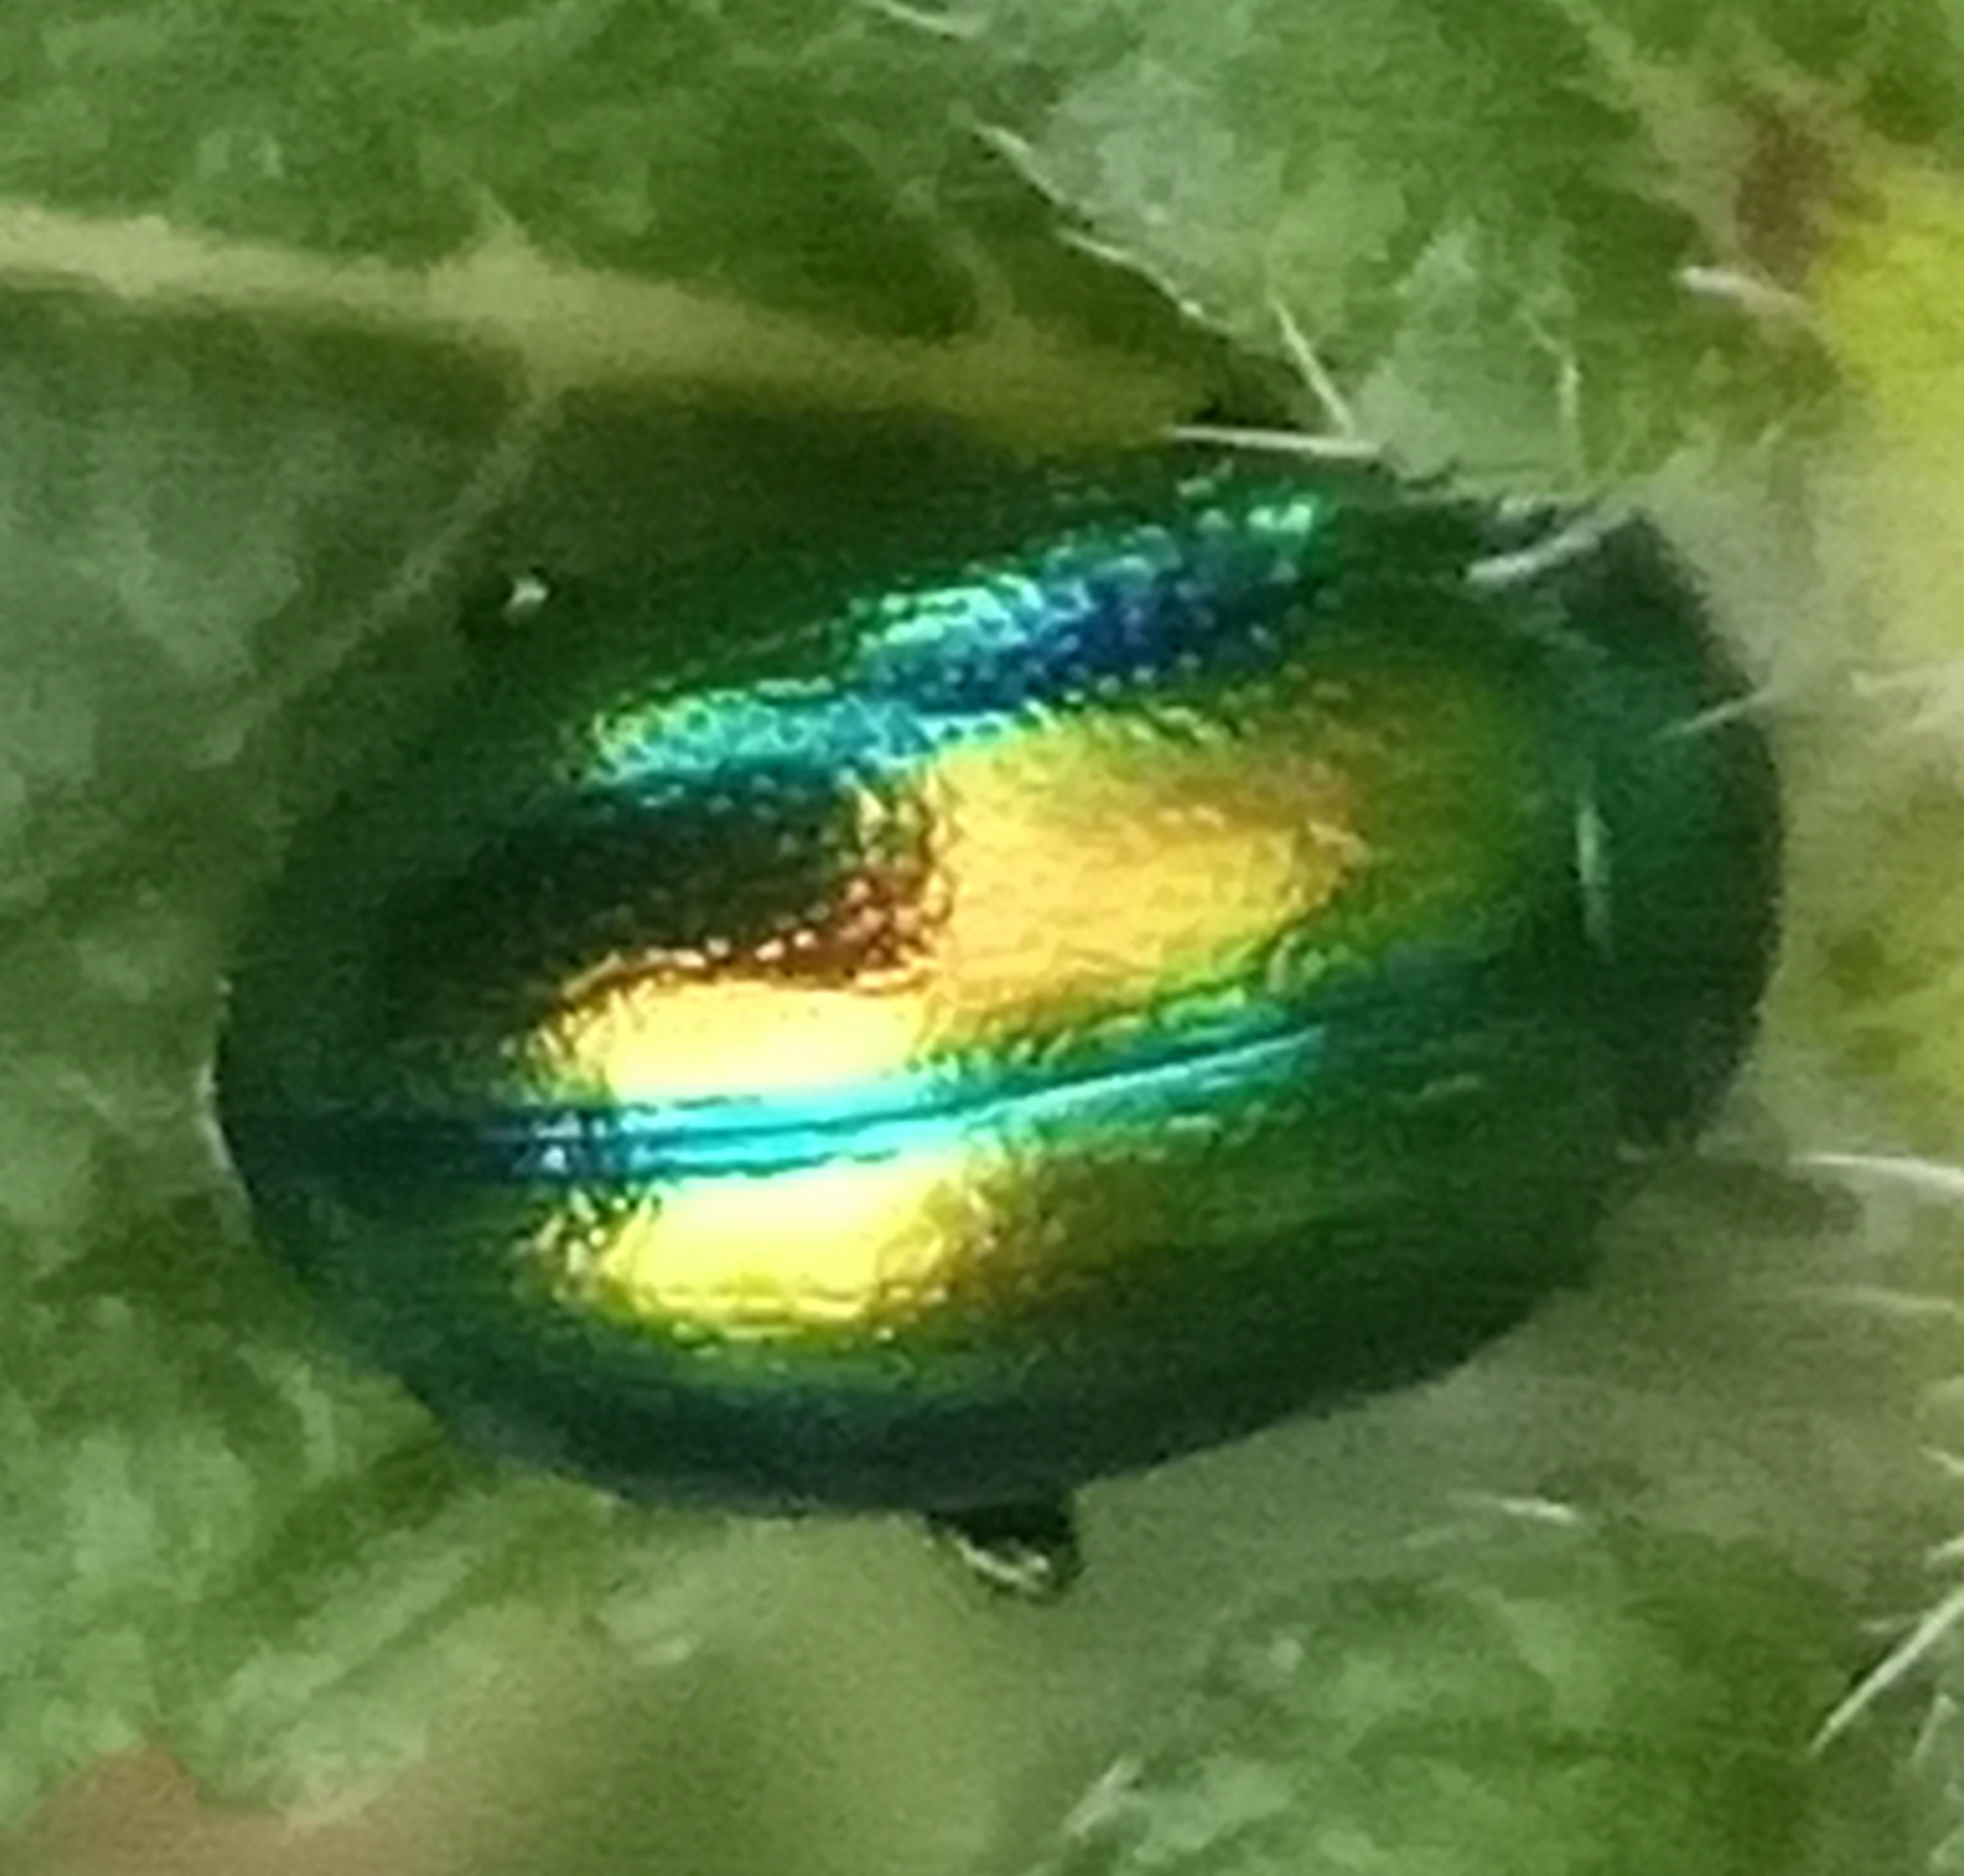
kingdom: Animalia
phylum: Arthropoda
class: Insecta
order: Coleoptera
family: Chrysomelidae
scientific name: Chrysomelidae
